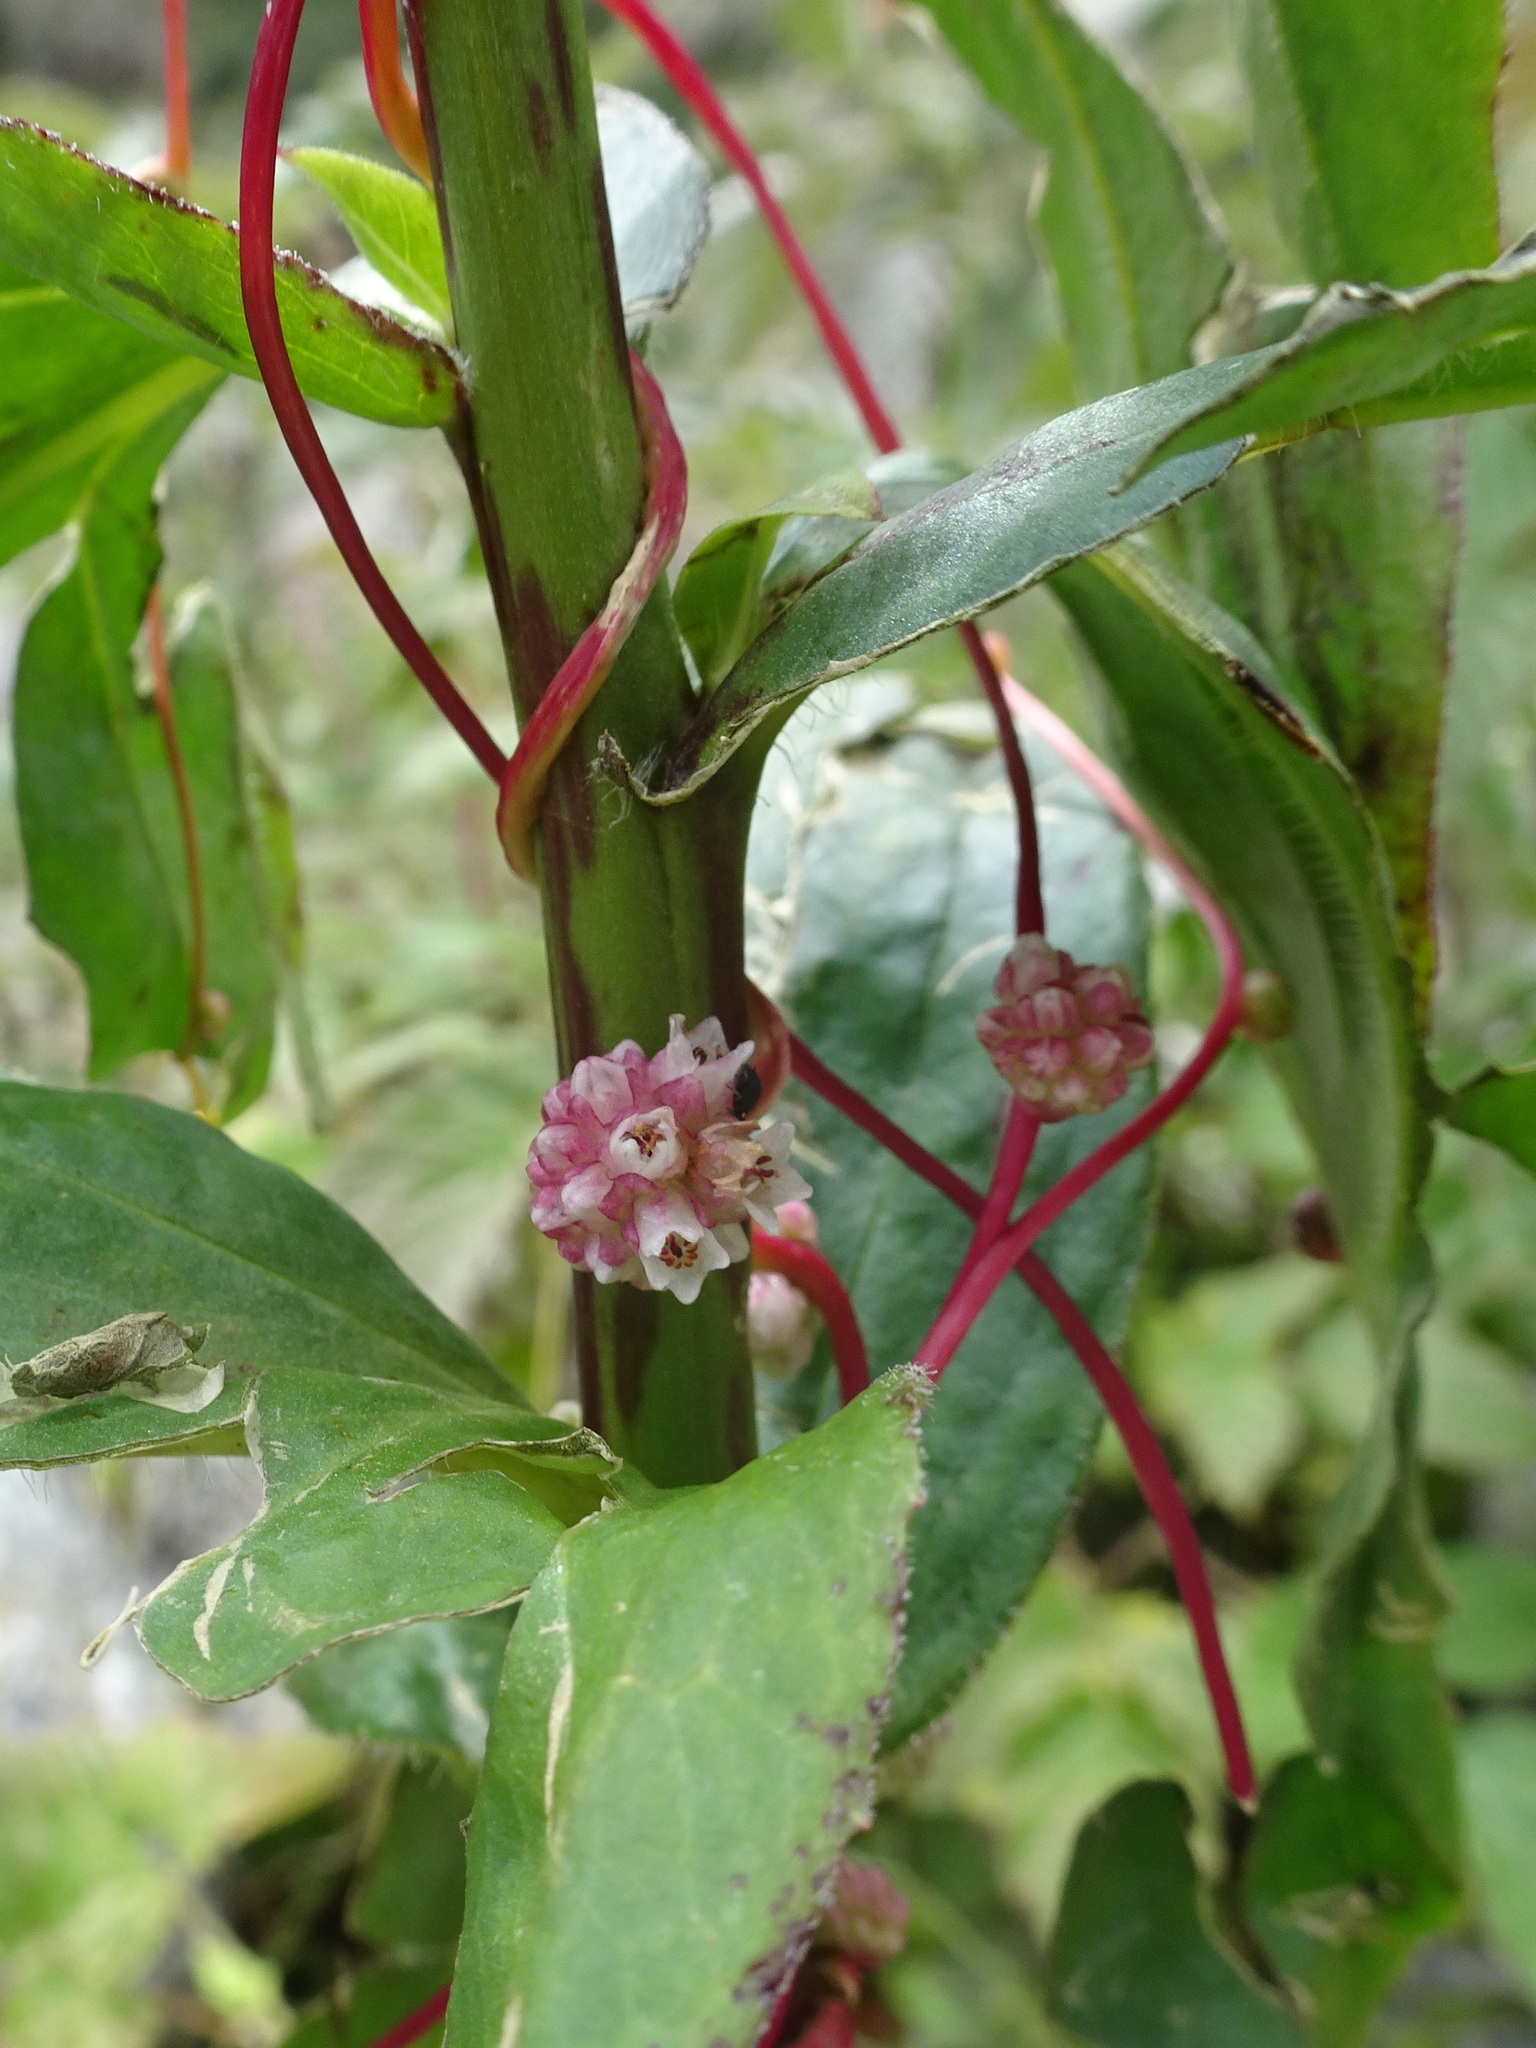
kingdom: Plantae
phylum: Tracheophyta
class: Magnoliopsida
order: Solanales
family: Convolvulaceae
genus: Cuscuta
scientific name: Cuscuta europaea
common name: Greater dodder
